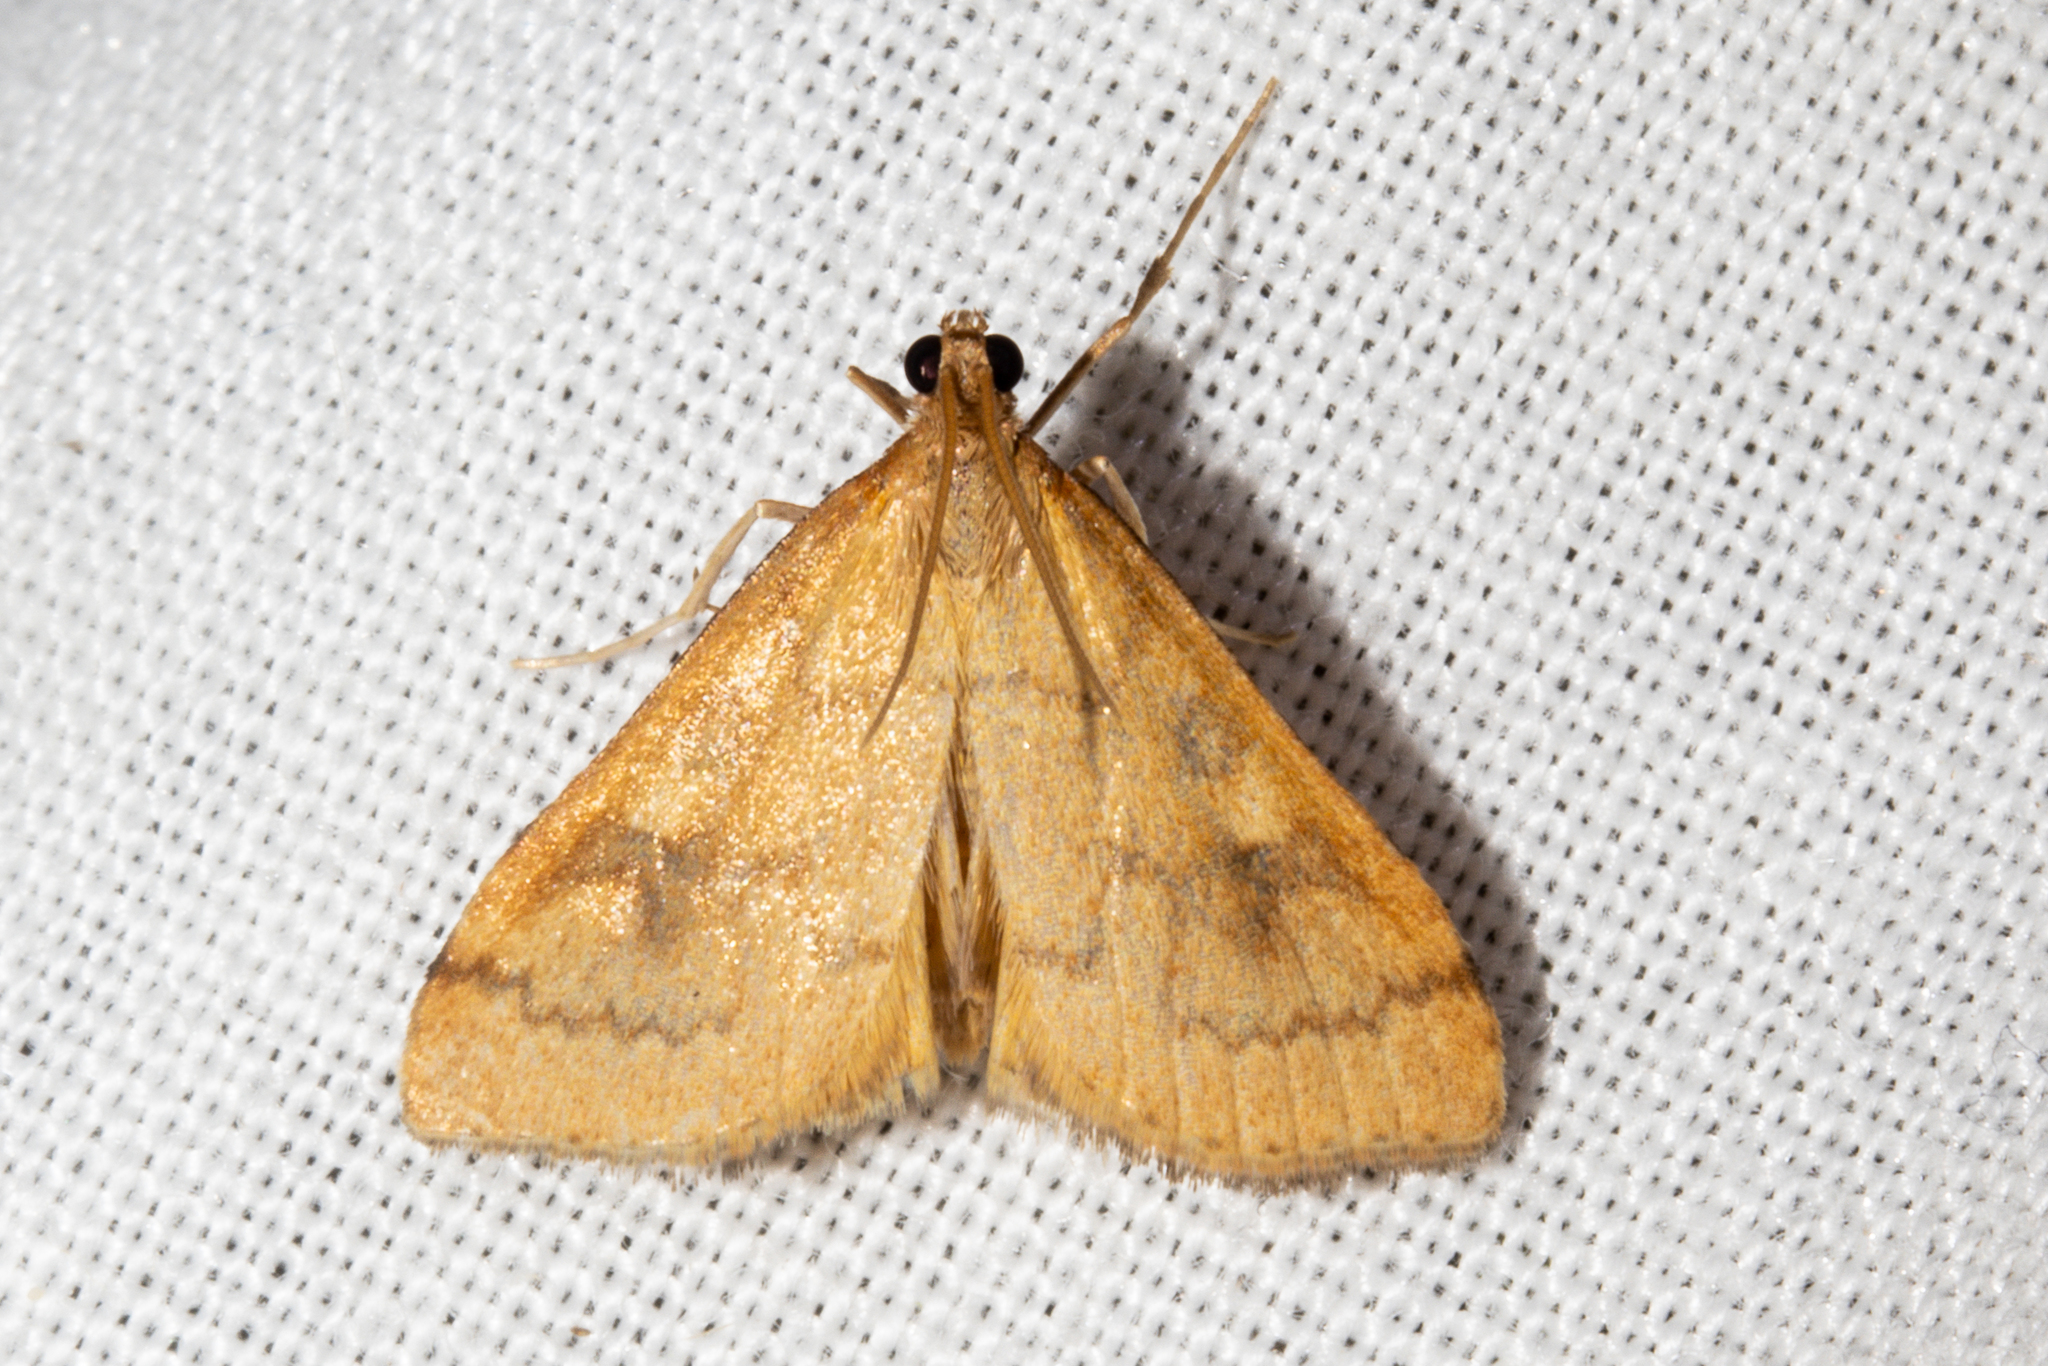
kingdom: Animalia
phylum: Arthropoda
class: Insecta
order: Lepidoptera
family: Crambidae
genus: Udea
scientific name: Udea Mnesictena flavidalis
